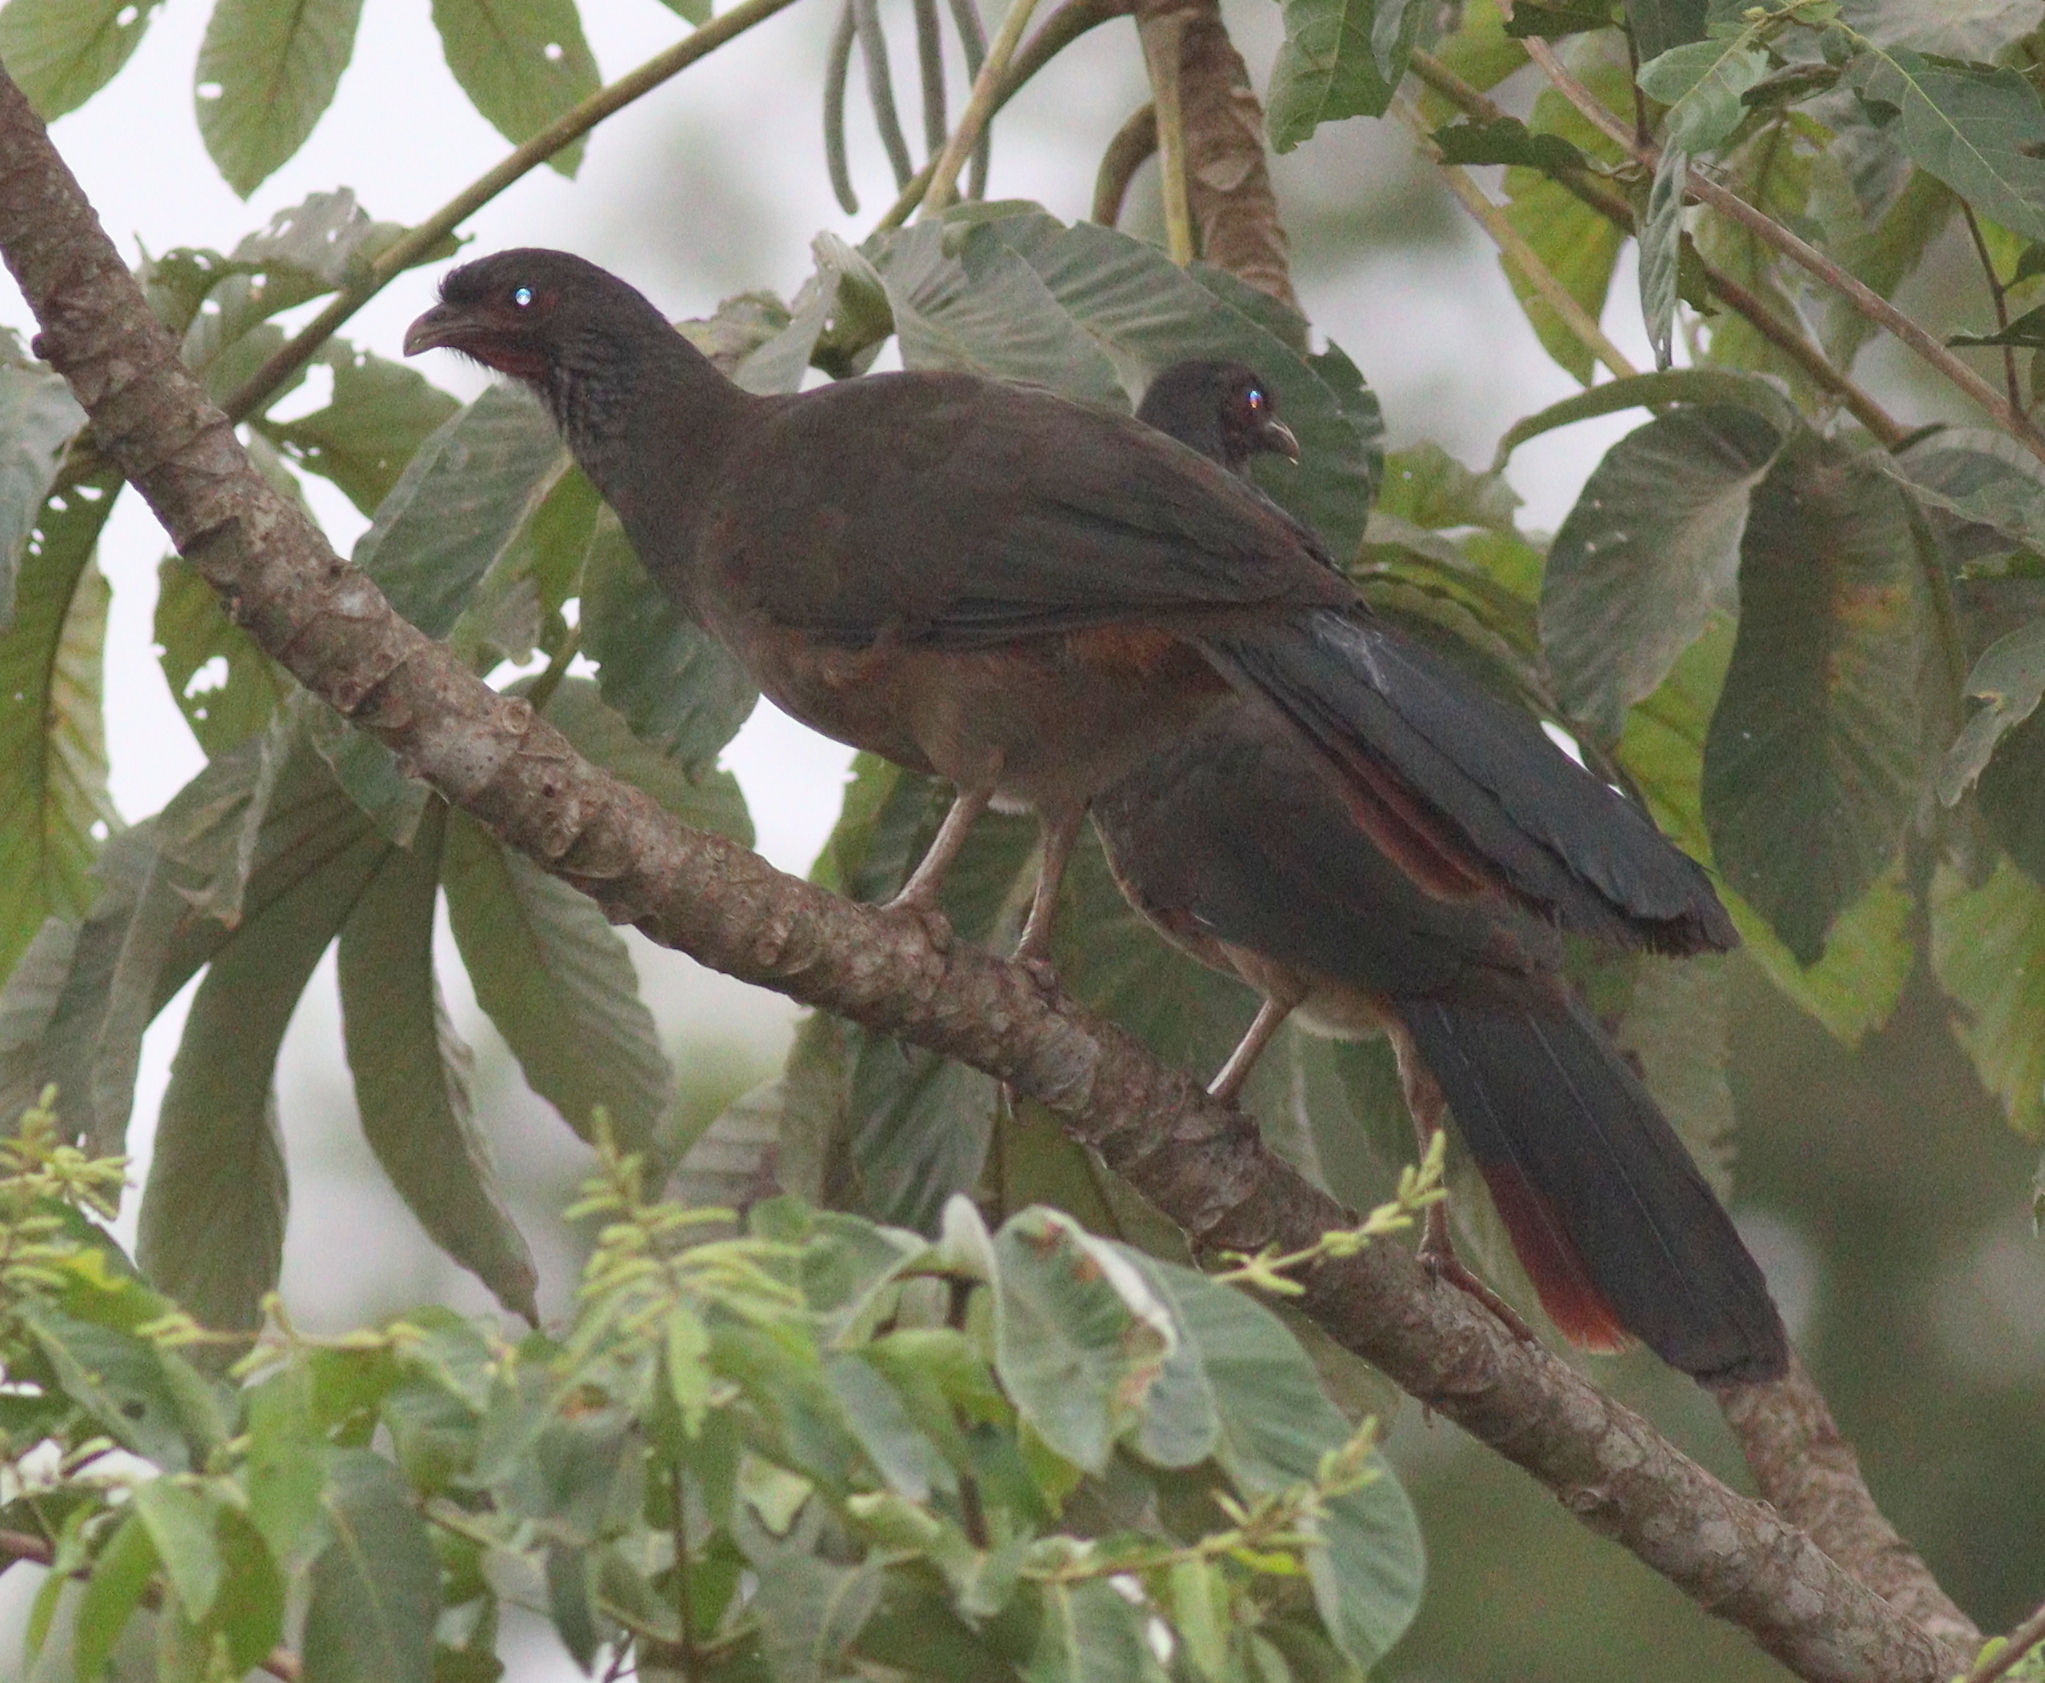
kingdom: Animalia
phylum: Chordata
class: Aves
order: Galliformes
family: Cracidae
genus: Ortalis
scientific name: Ortalis canicollis
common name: Chaco chachalaca
